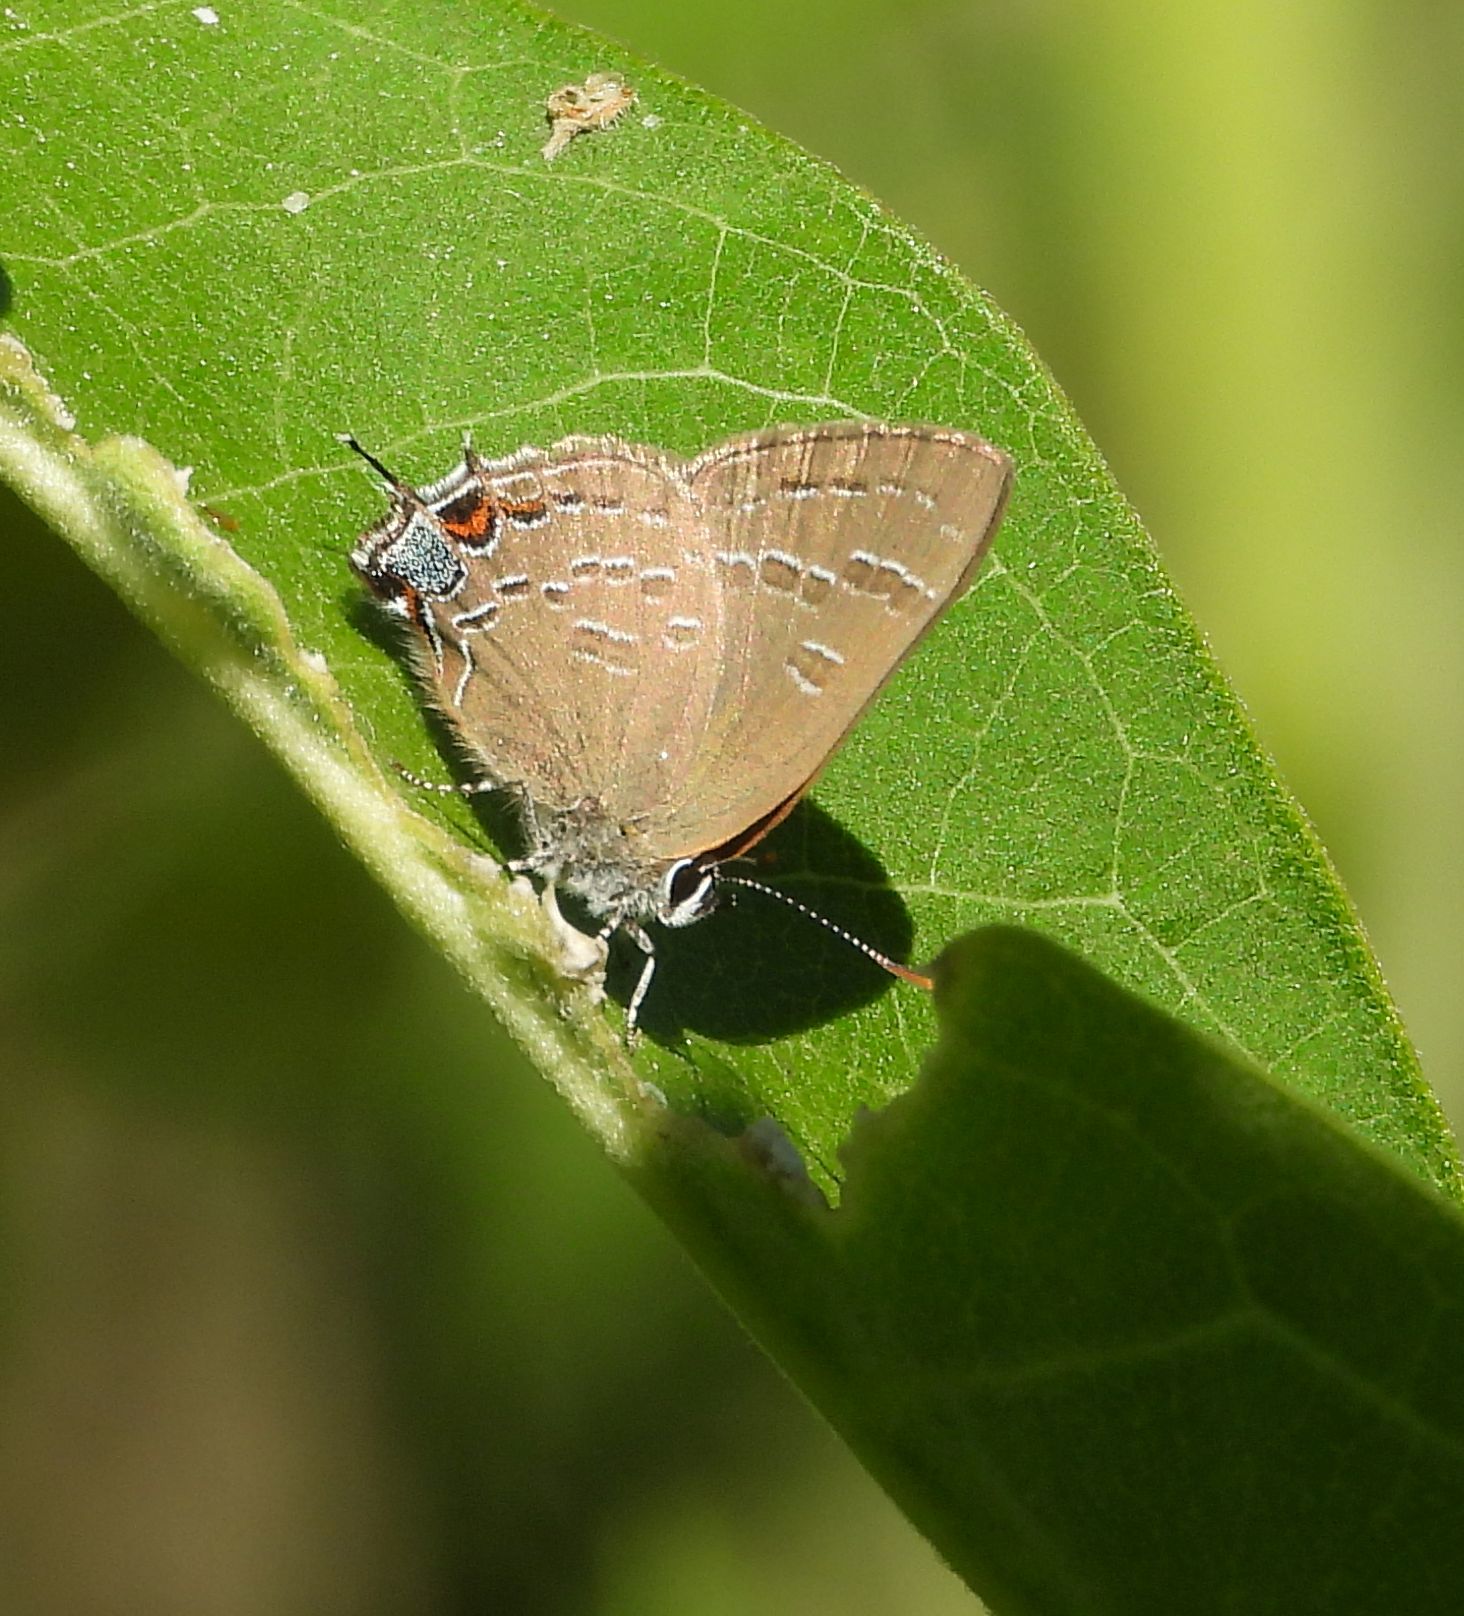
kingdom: Animalia
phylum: Arthropoda
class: Insecta
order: Lepidoptera
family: Lycaenidae
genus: Satyrium
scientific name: Satyrium calanus
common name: Banded hairstreak
